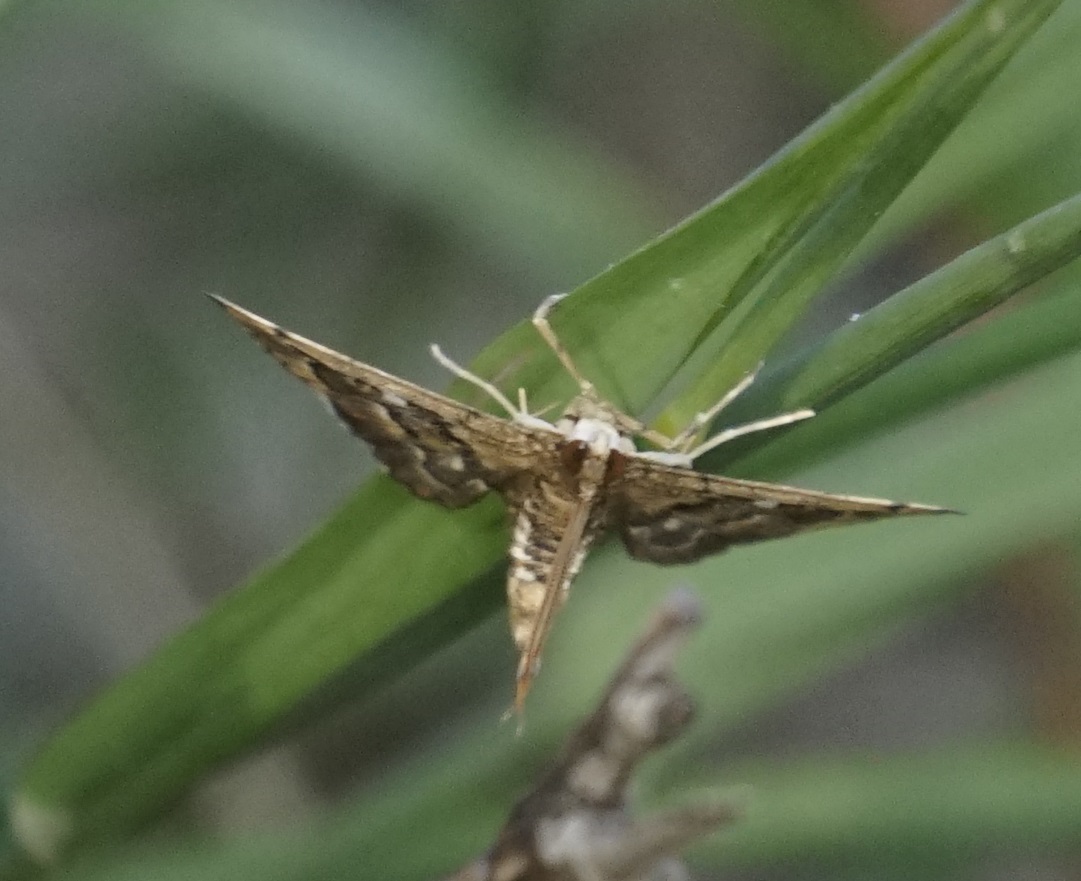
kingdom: Animalia
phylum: Arthropoda
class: Insecta
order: Lepidoptera
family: Crambidae
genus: Nacoleia
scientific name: Nacoleia rhoeoalis
